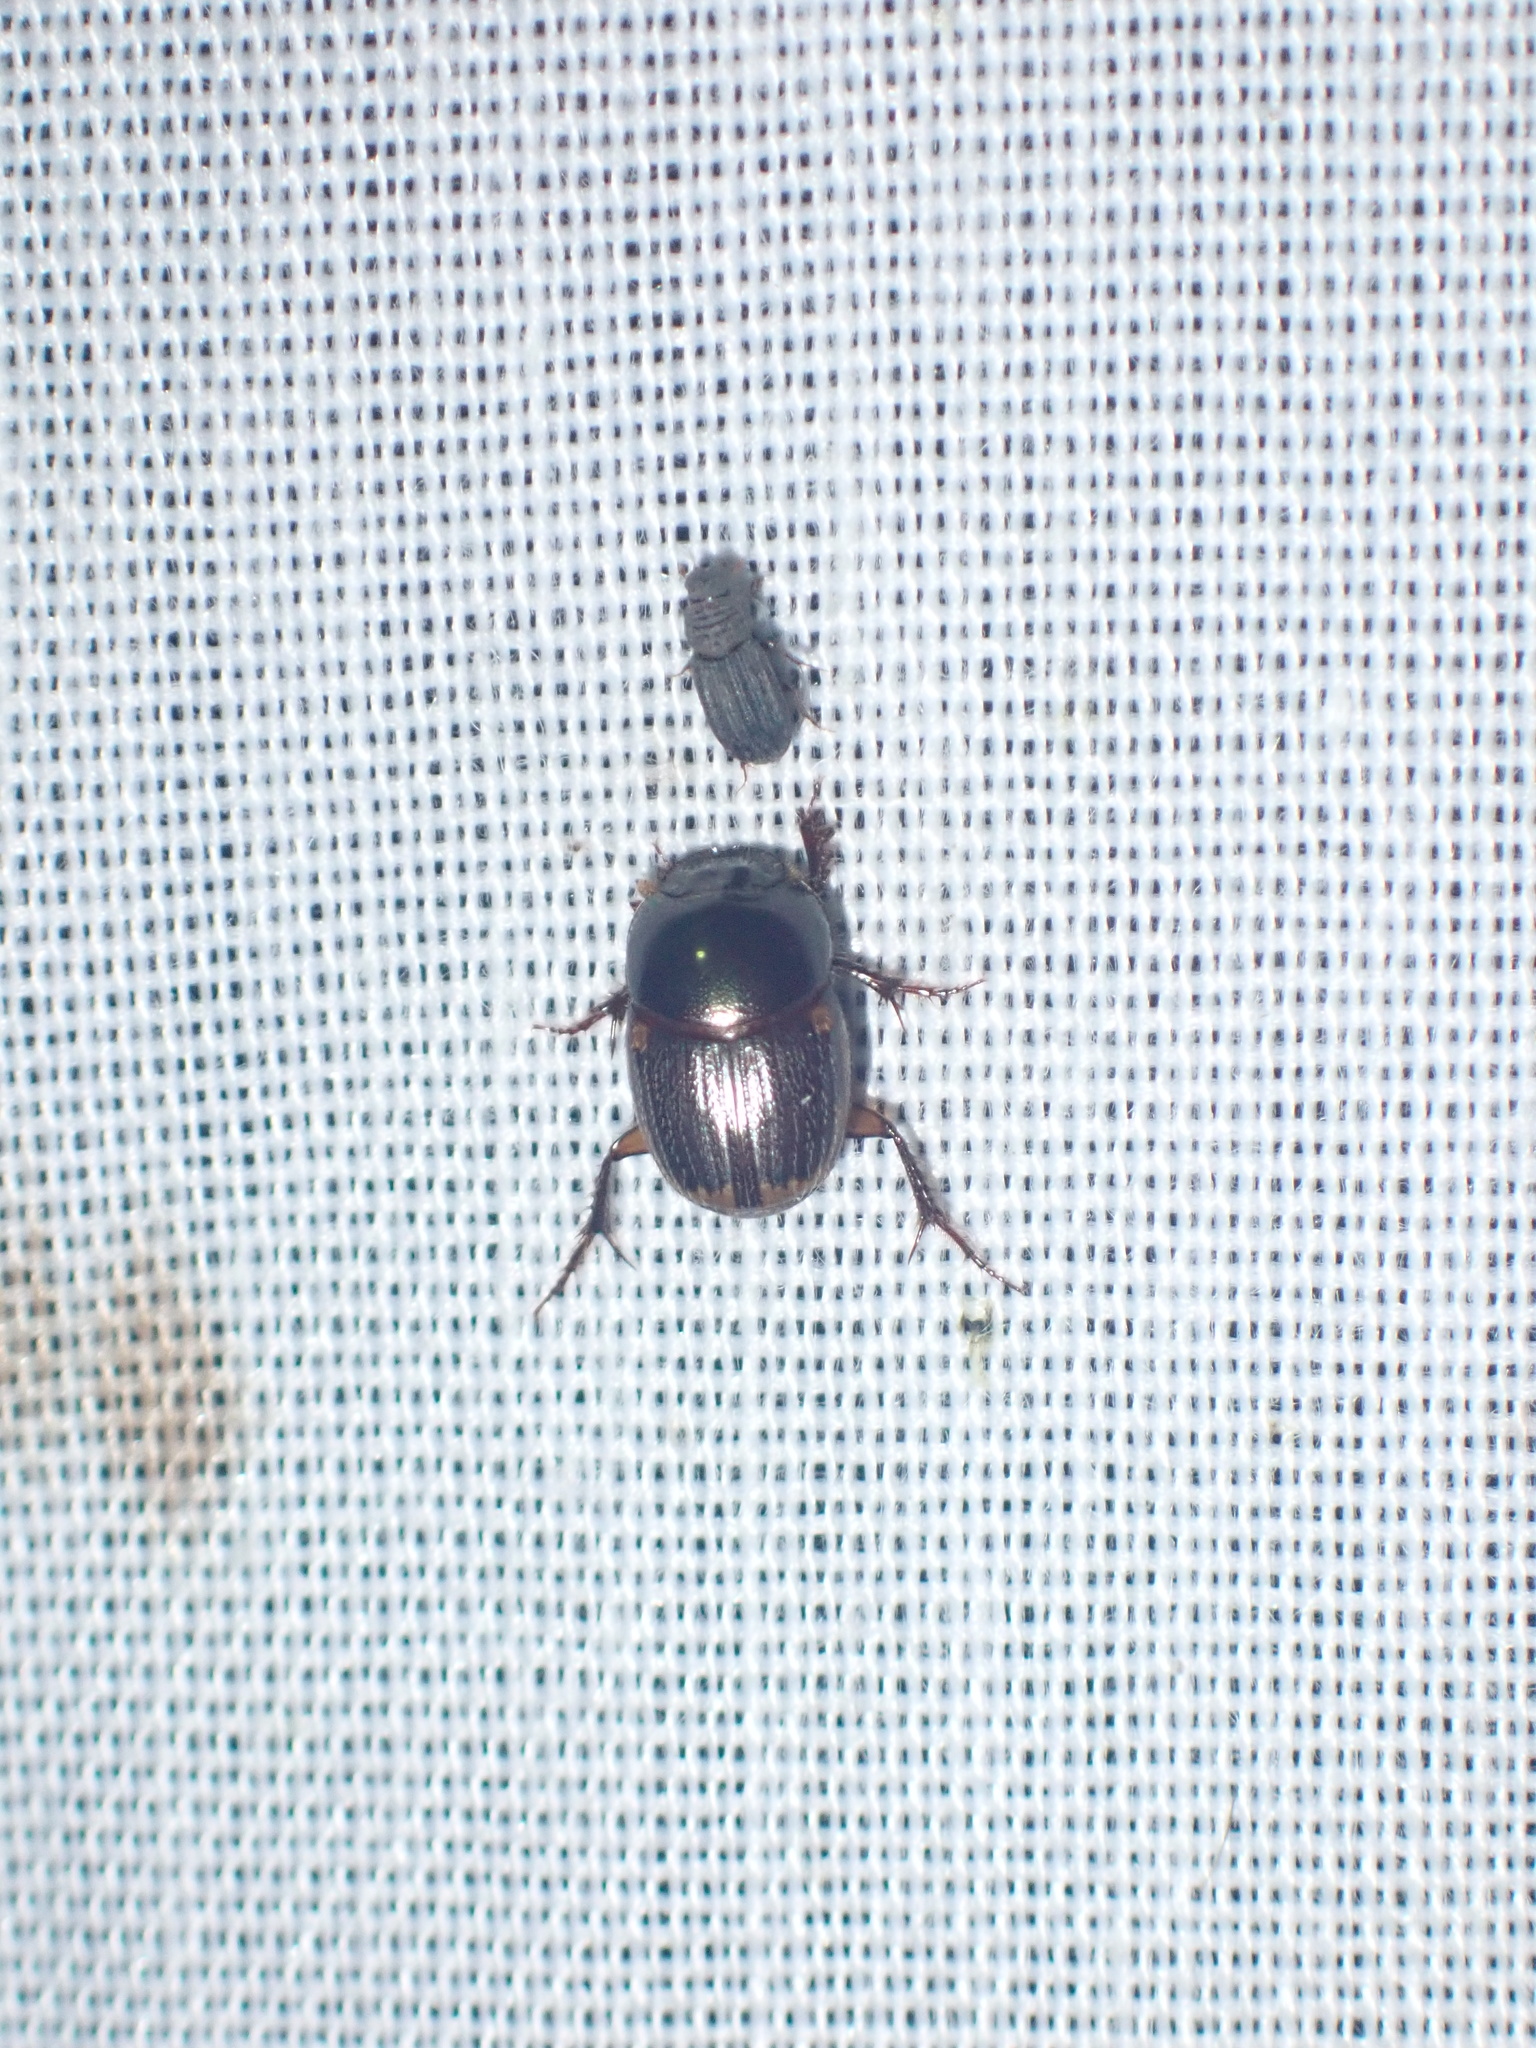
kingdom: Animalia
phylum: Arthropoda
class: Insecta
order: Coleoptera
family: Scarabaeidae
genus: Onthophagus
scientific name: Onthophagus vinctus
